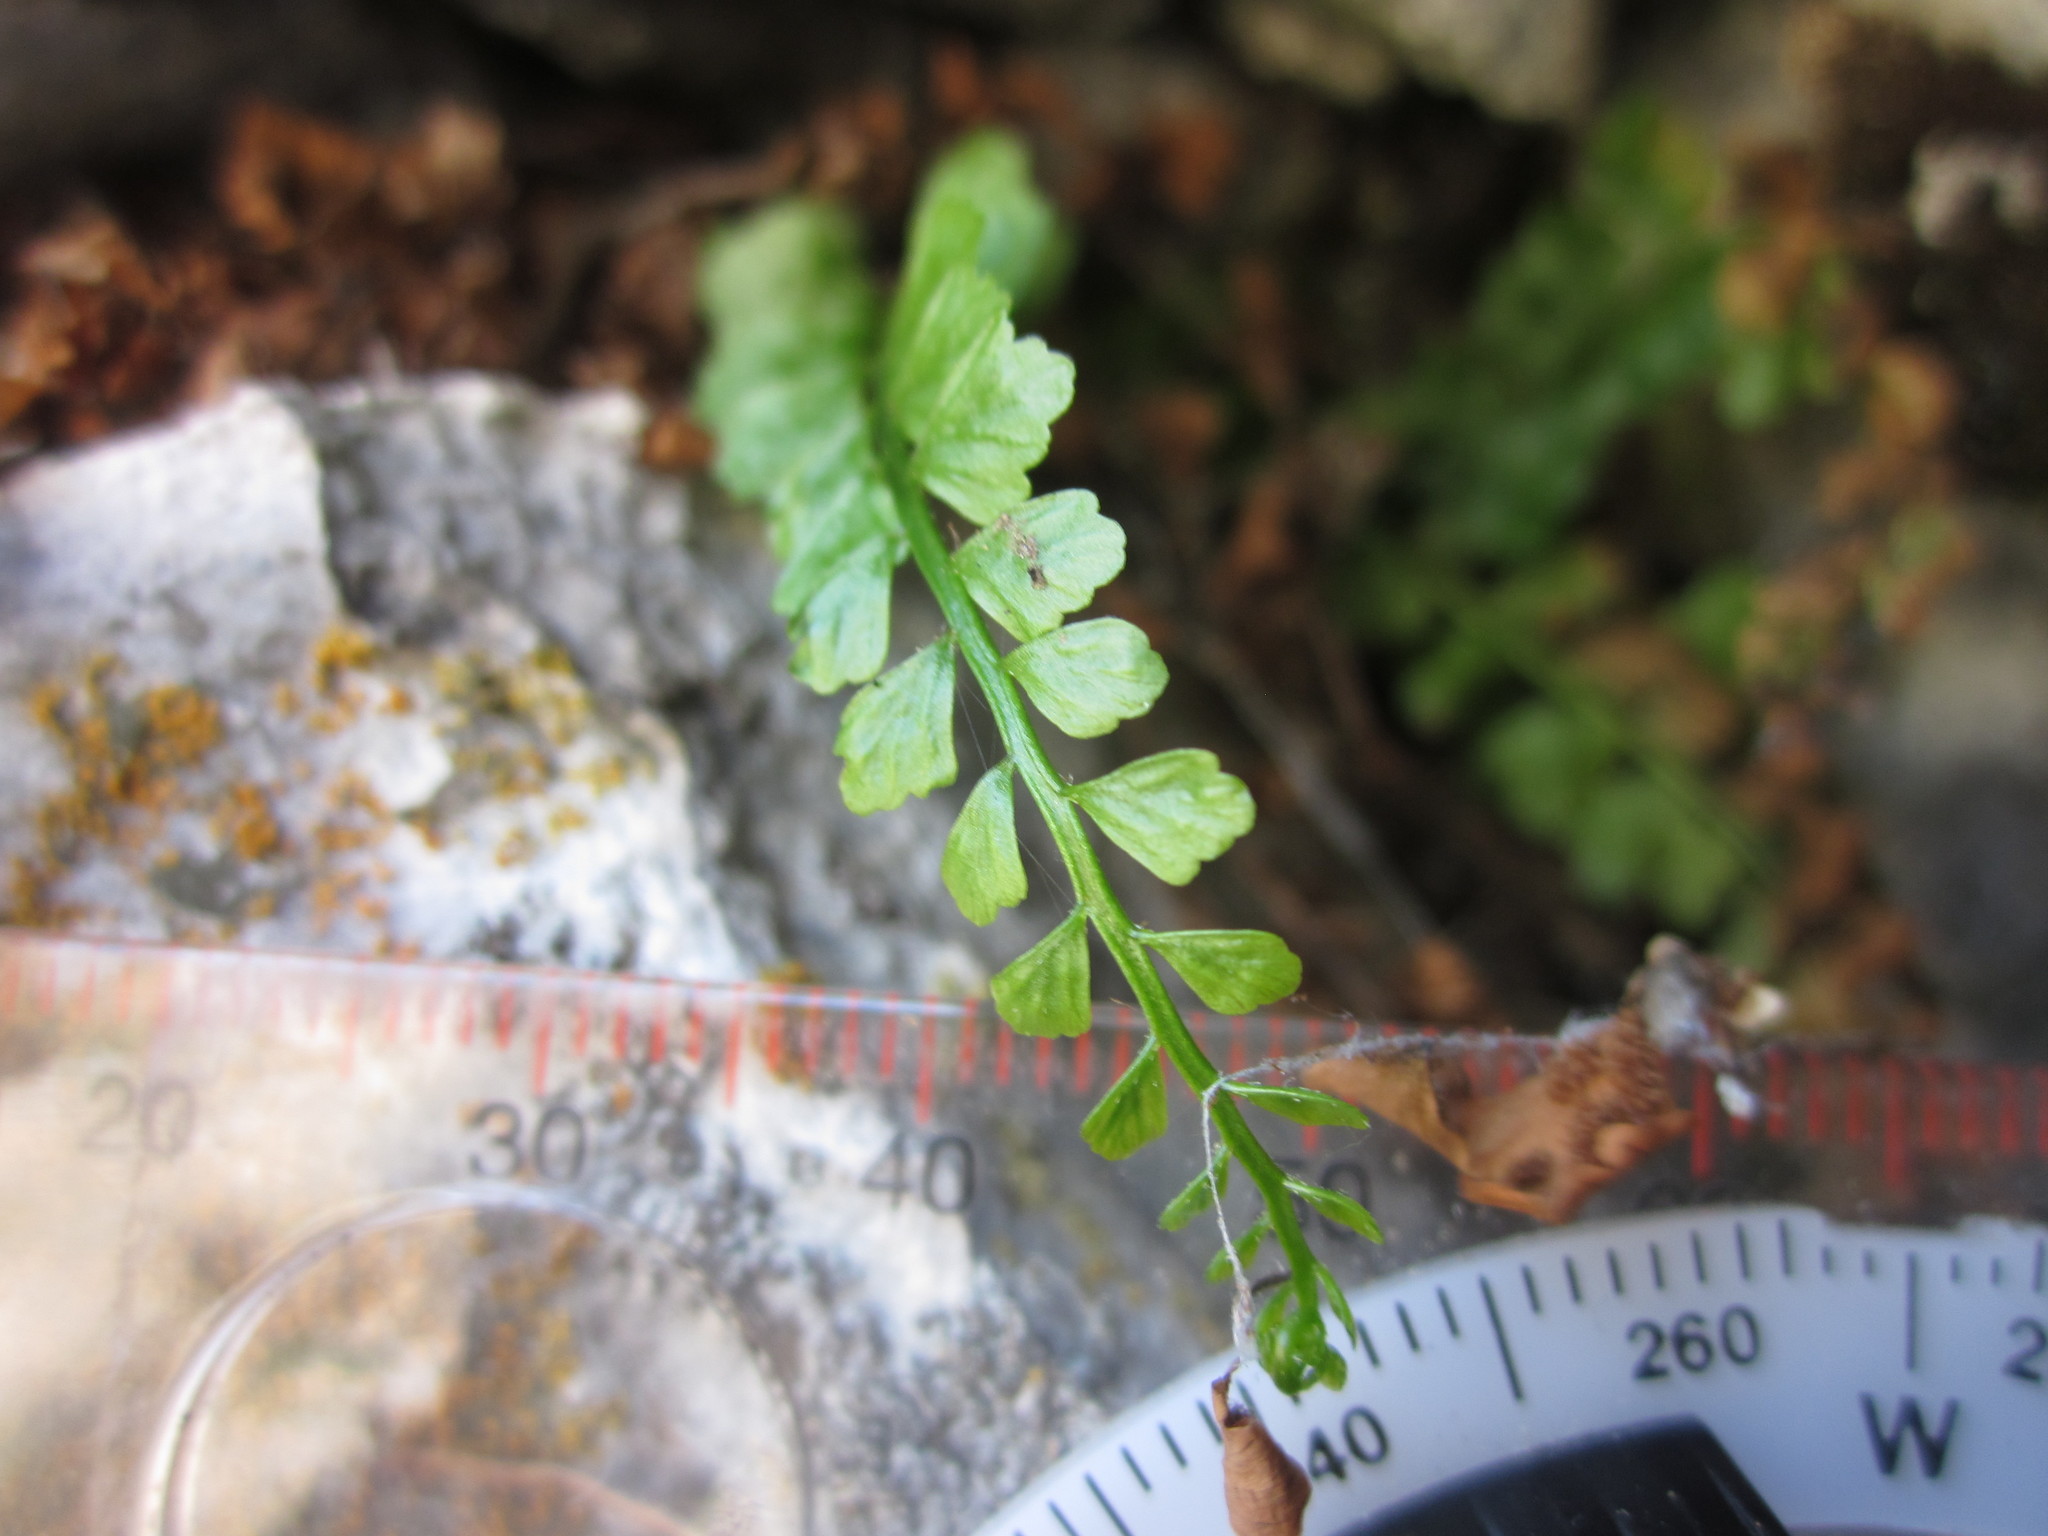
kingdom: Plantae
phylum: Tracheophyta
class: Polypodiopsida
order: Polypodiales
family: Aspleniaceae
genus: Asplenium
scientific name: Asplenium viride
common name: Green spleenwort
